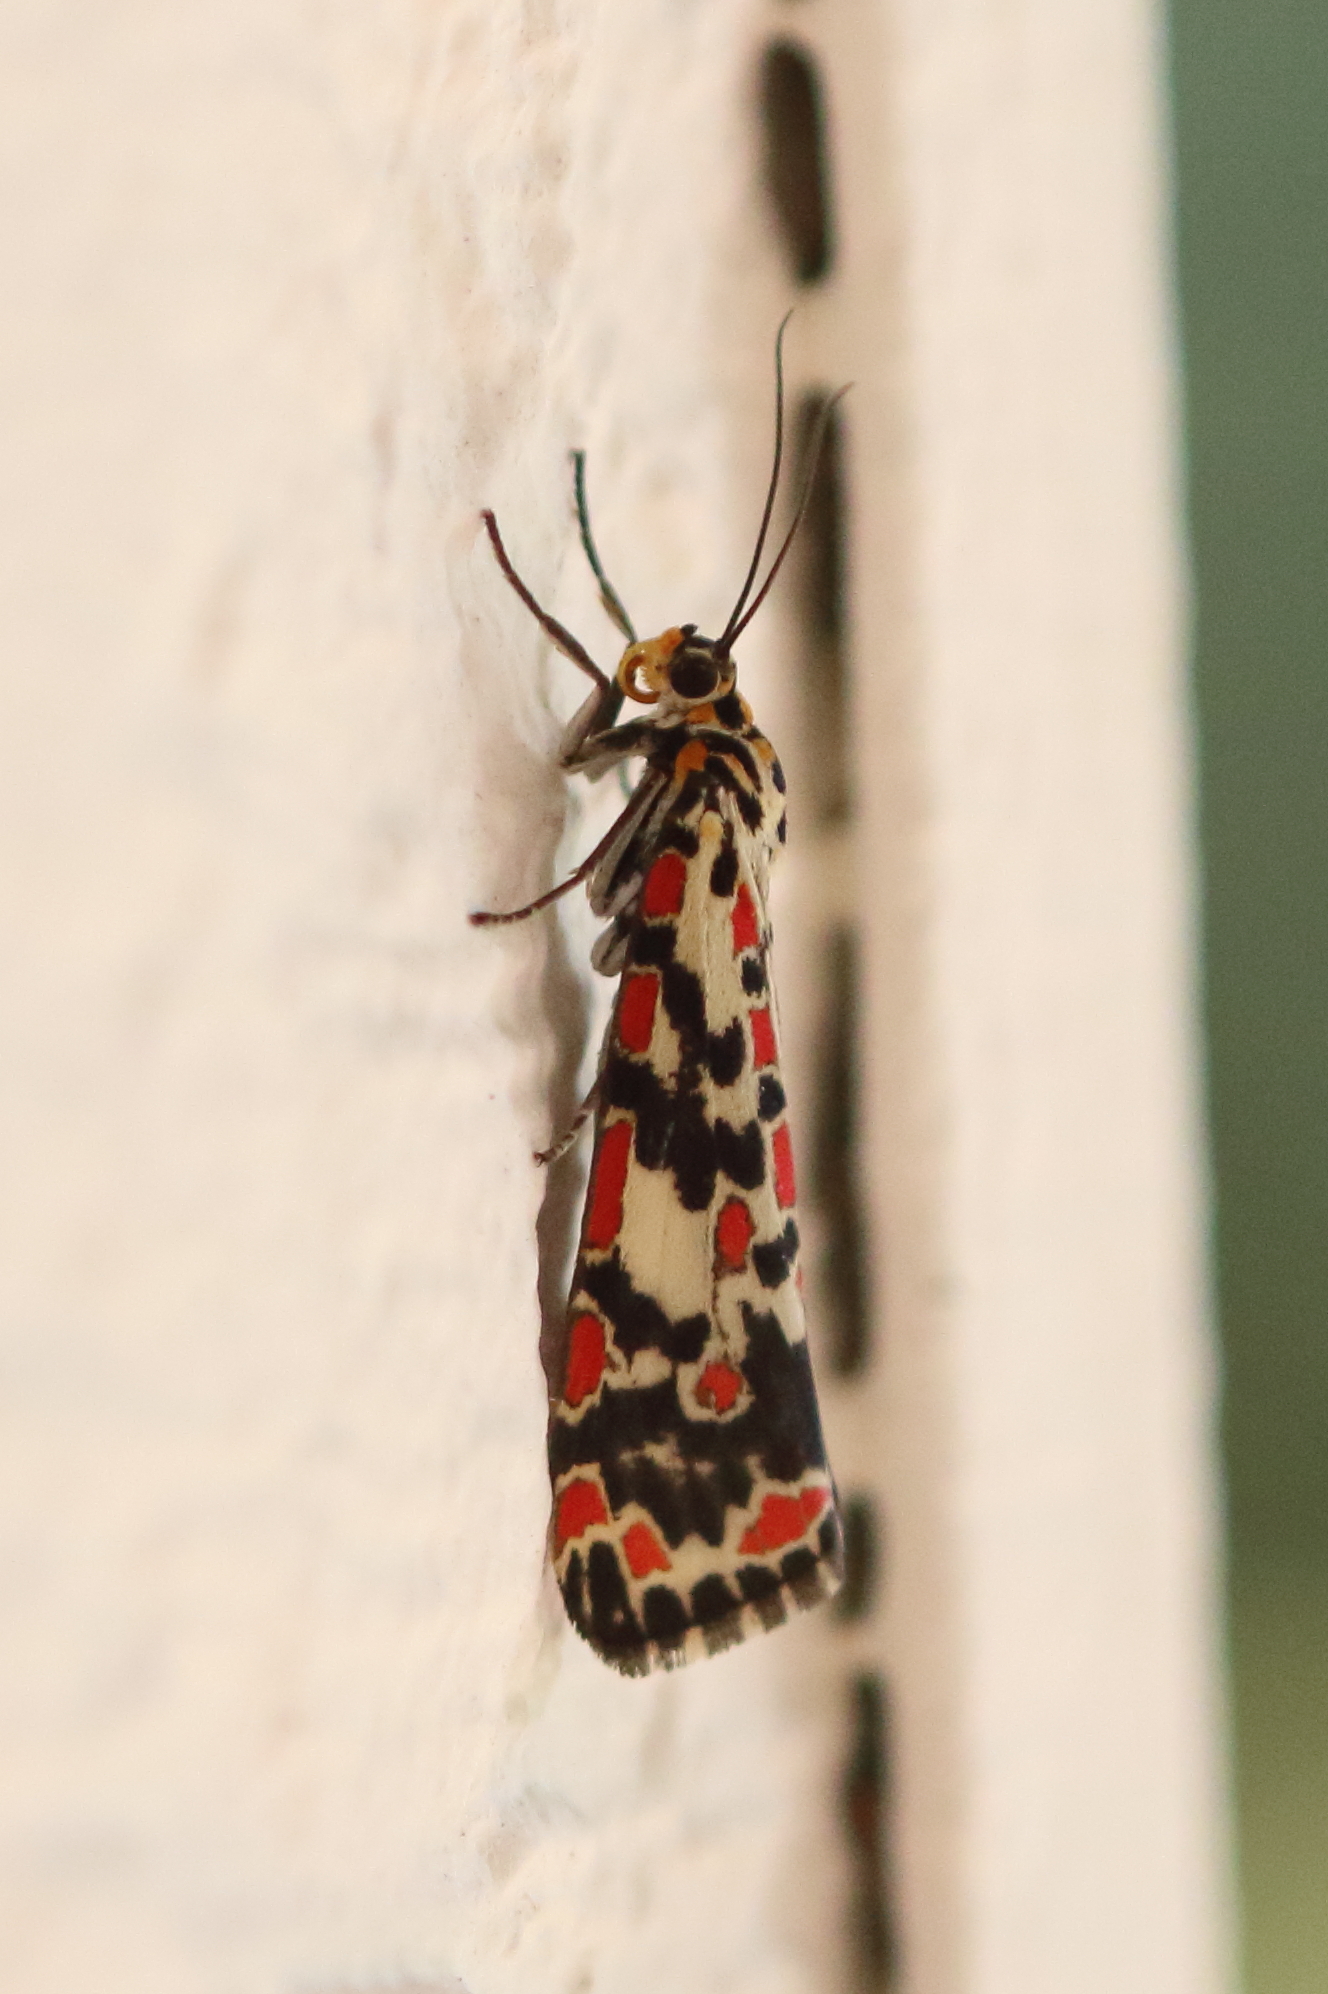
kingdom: Animalia
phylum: Arthropoda
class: Insecta
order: Lepidoptera
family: Erebidae
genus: Utetheisa
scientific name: Utetheisa salomonis
